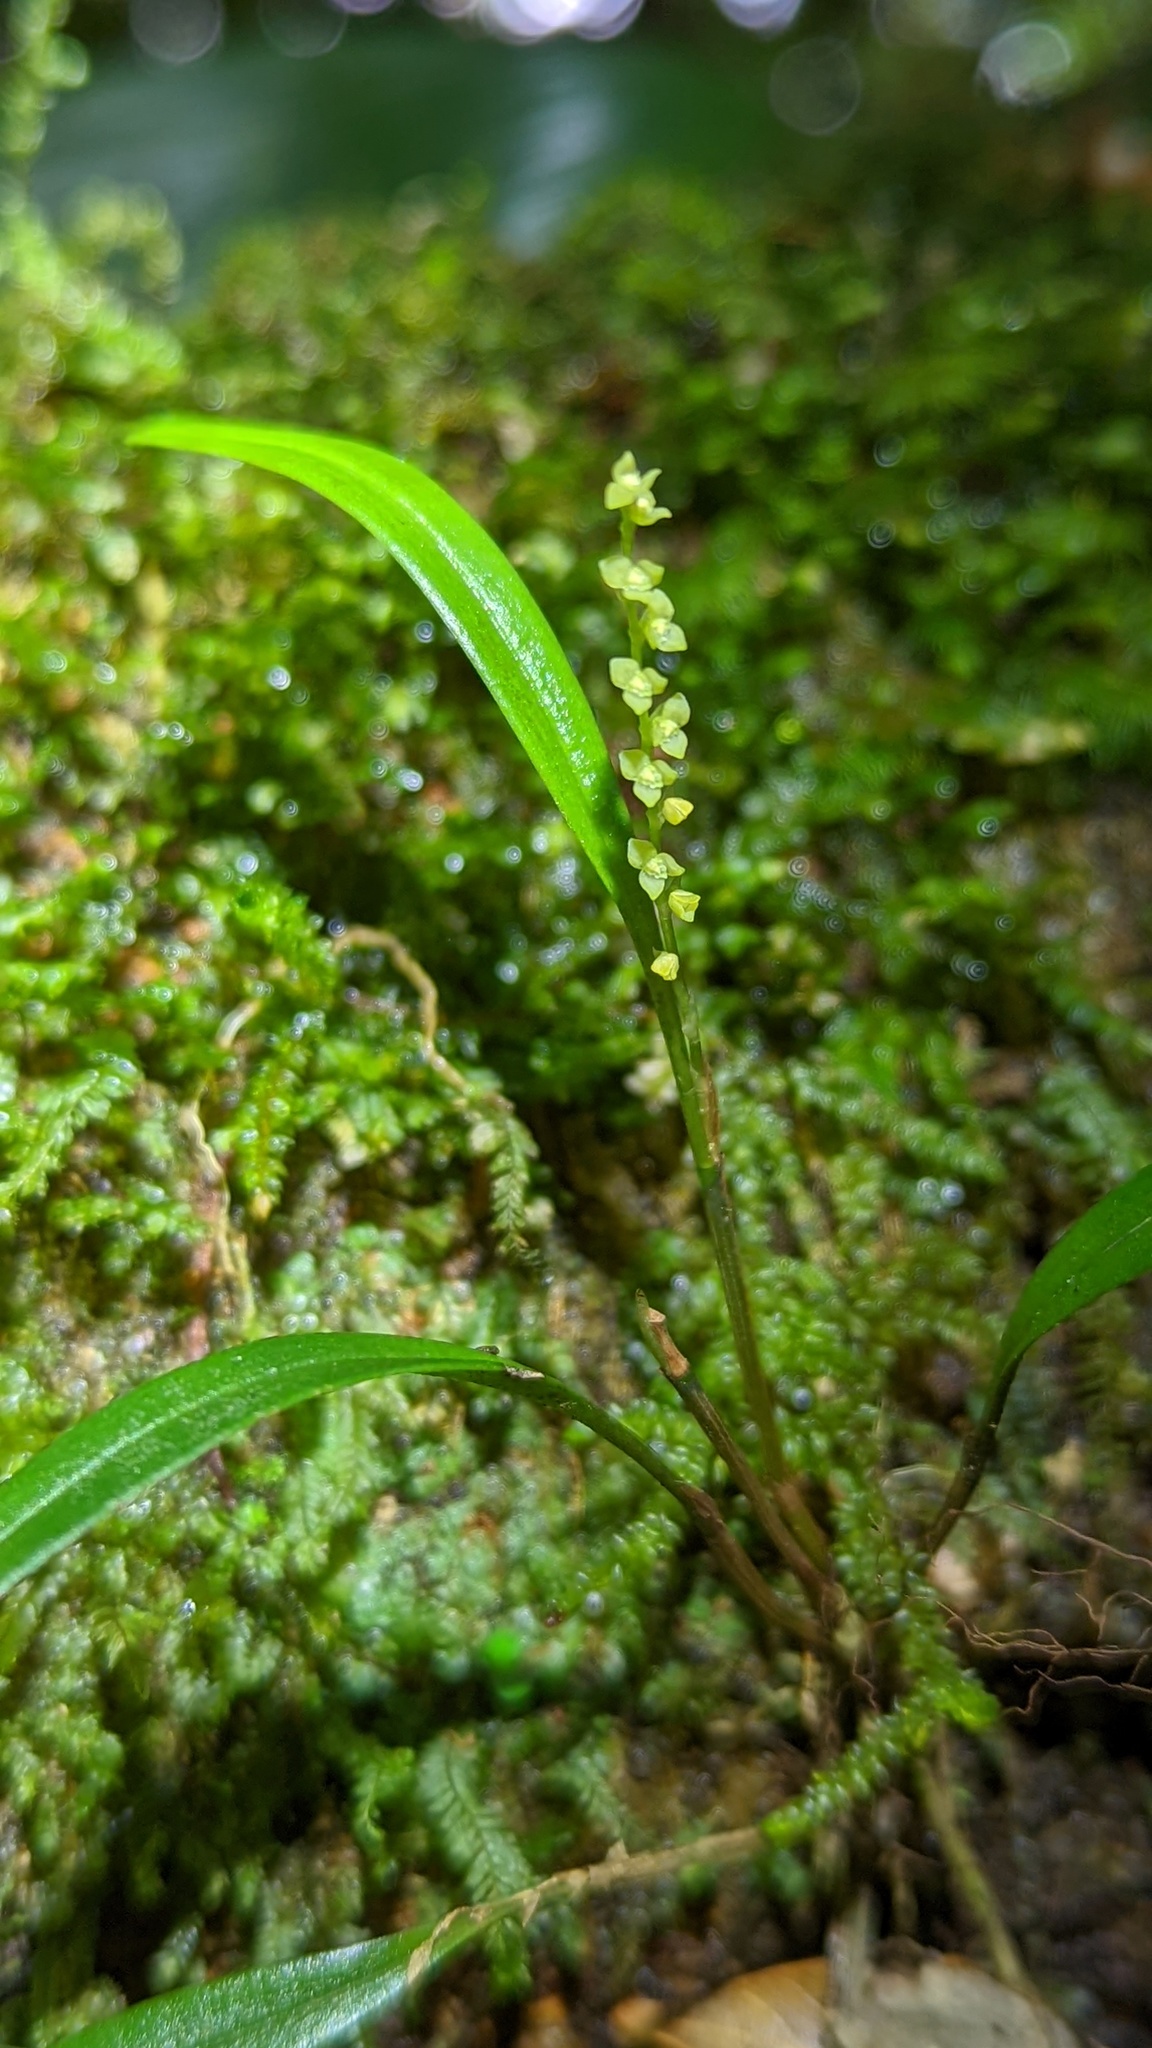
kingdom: Plantae
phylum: Tracheophyta
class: Liliopsida
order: Asparagales
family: Orchidaceae
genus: Stelis
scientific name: Stelis
